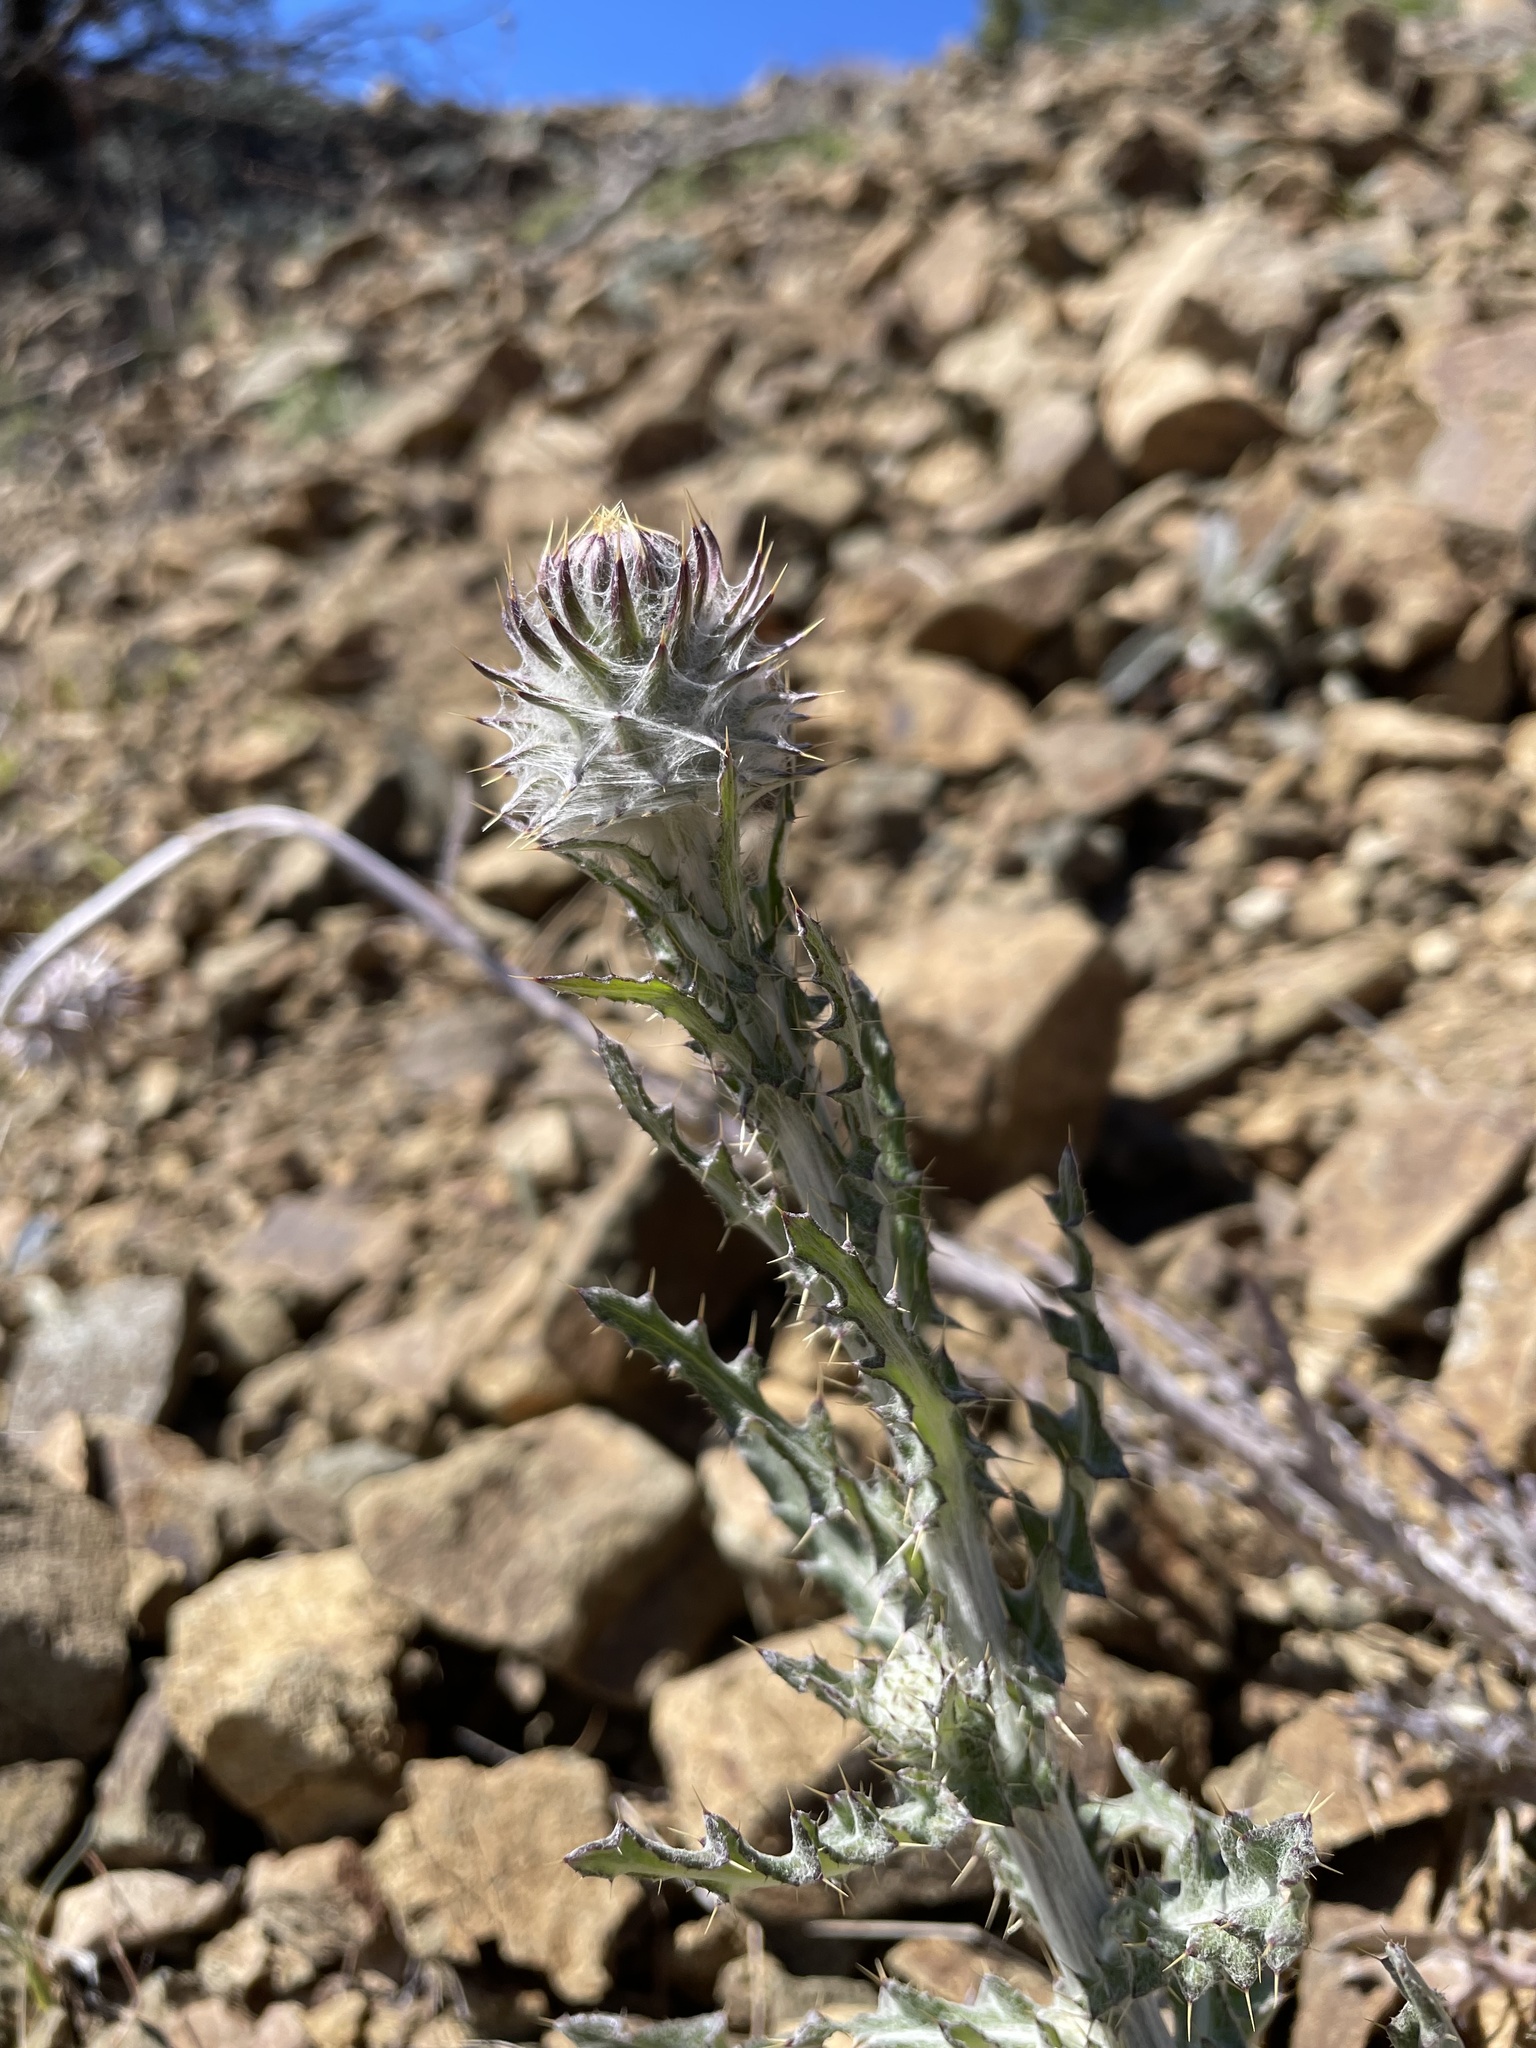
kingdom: Plantae
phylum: Tracheophyta
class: Magnoliopsida
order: Asterales
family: Asteraceae
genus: Cirsium
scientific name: Cirsium occidentale
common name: Western thistle
